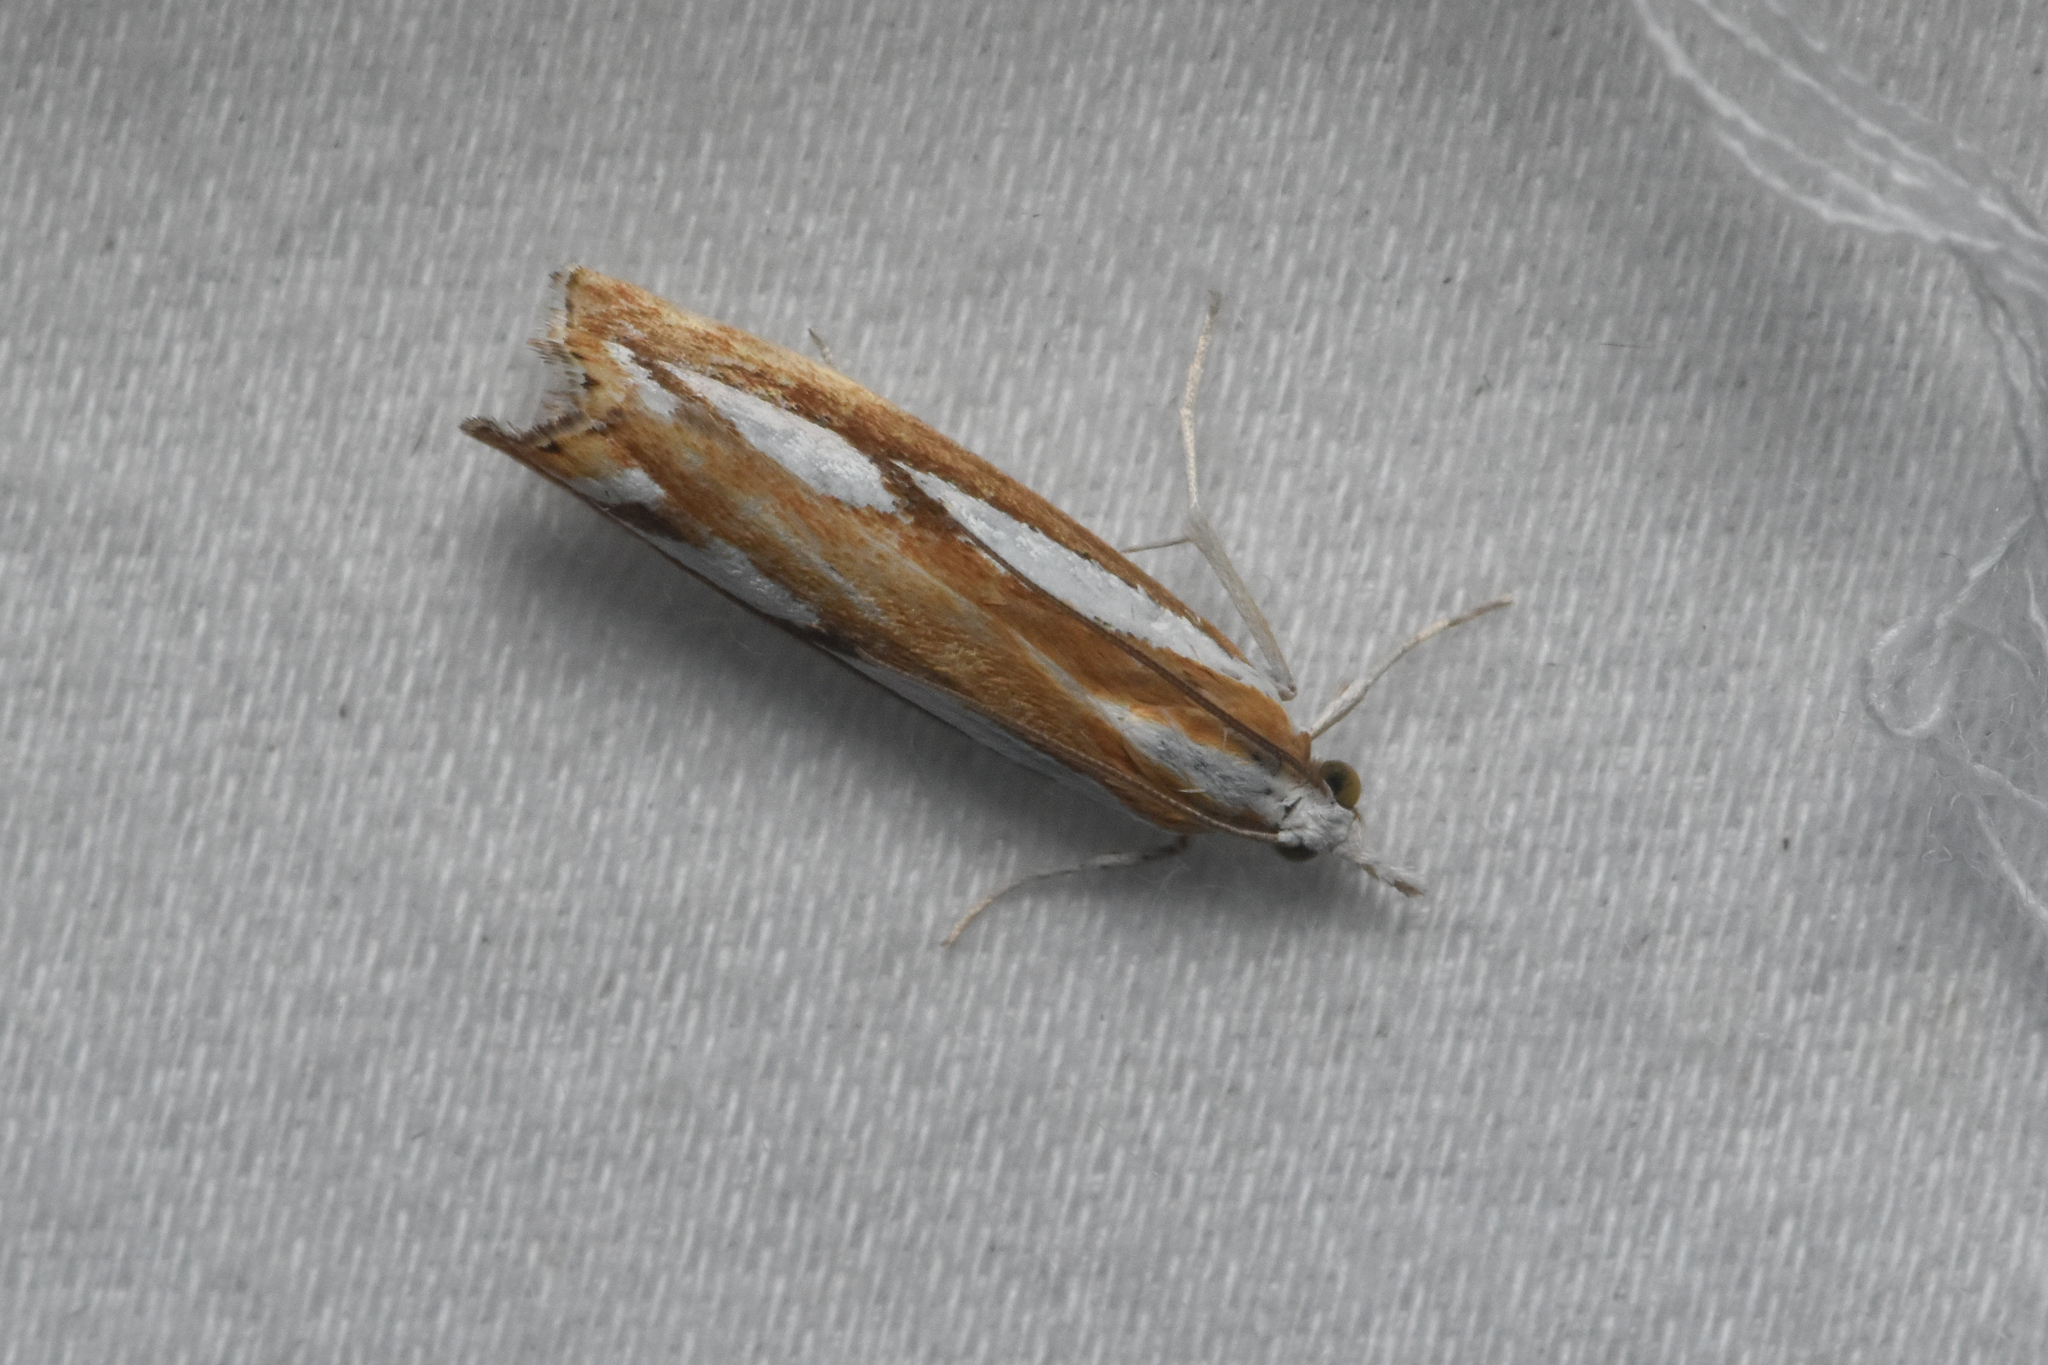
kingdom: Animalia
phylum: Arthropoda
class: Insecta
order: Lepidoptera
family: Crambidae
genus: Catoptria
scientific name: Catoptria latiradiellus
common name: Two-banded catoptria moth
